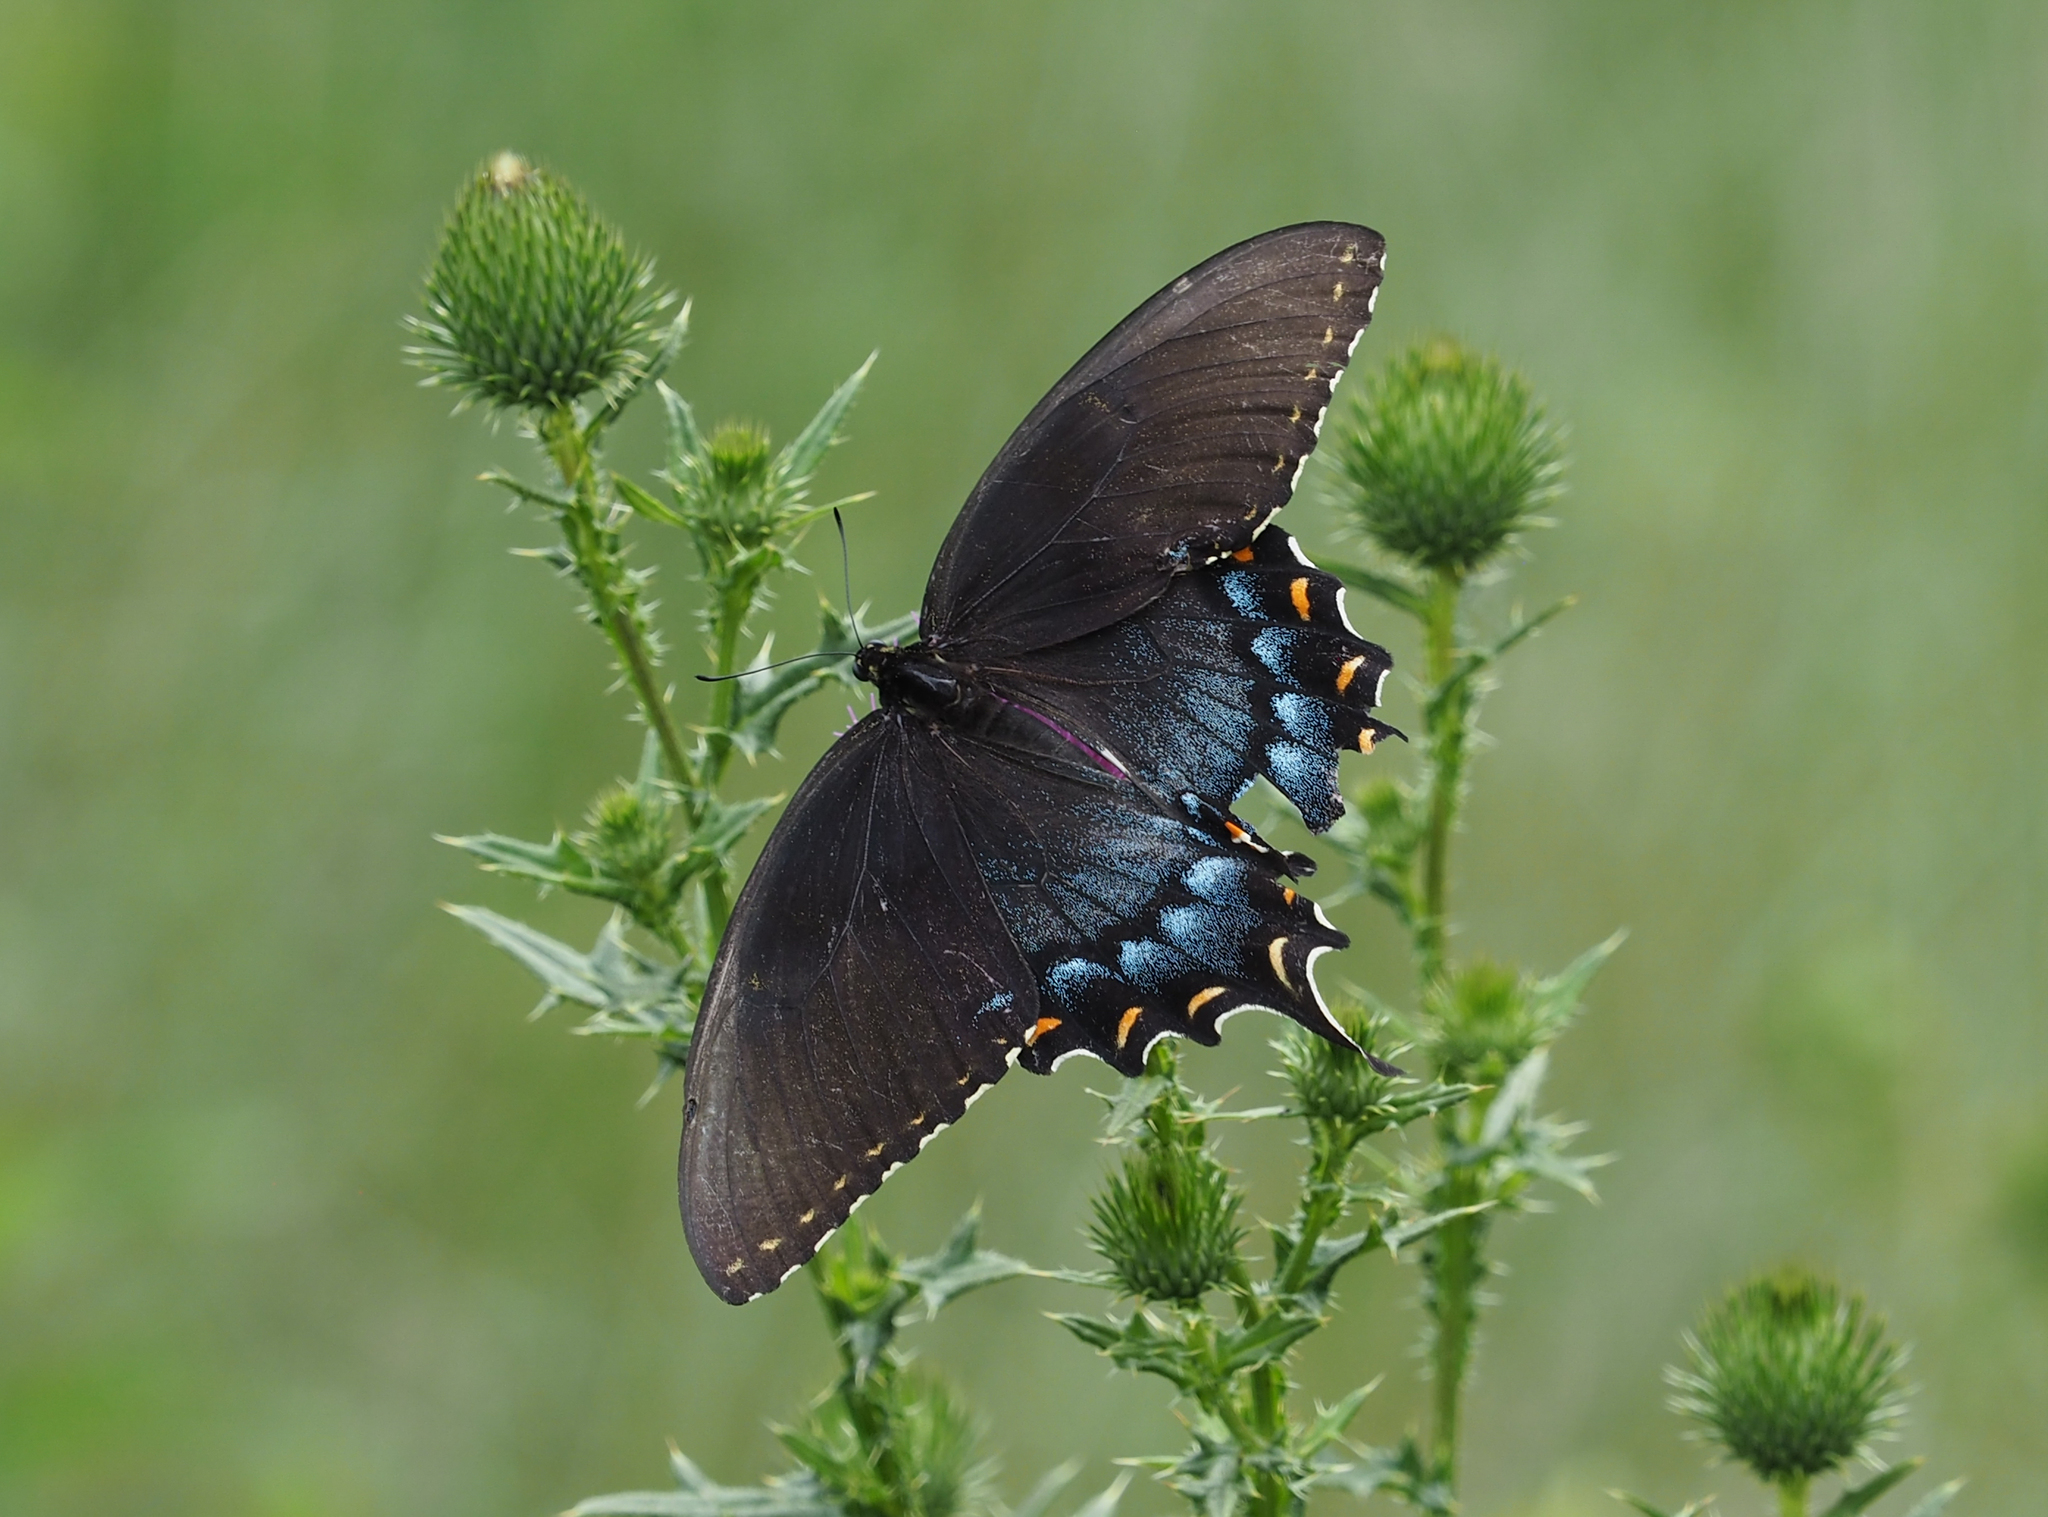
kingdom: Animalia
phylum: Arthropoda
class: Insecta
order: Lepidoptera
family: Papilionidae
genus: Papilio
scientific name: Papilio glaucus
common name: Tiger swallowtail
